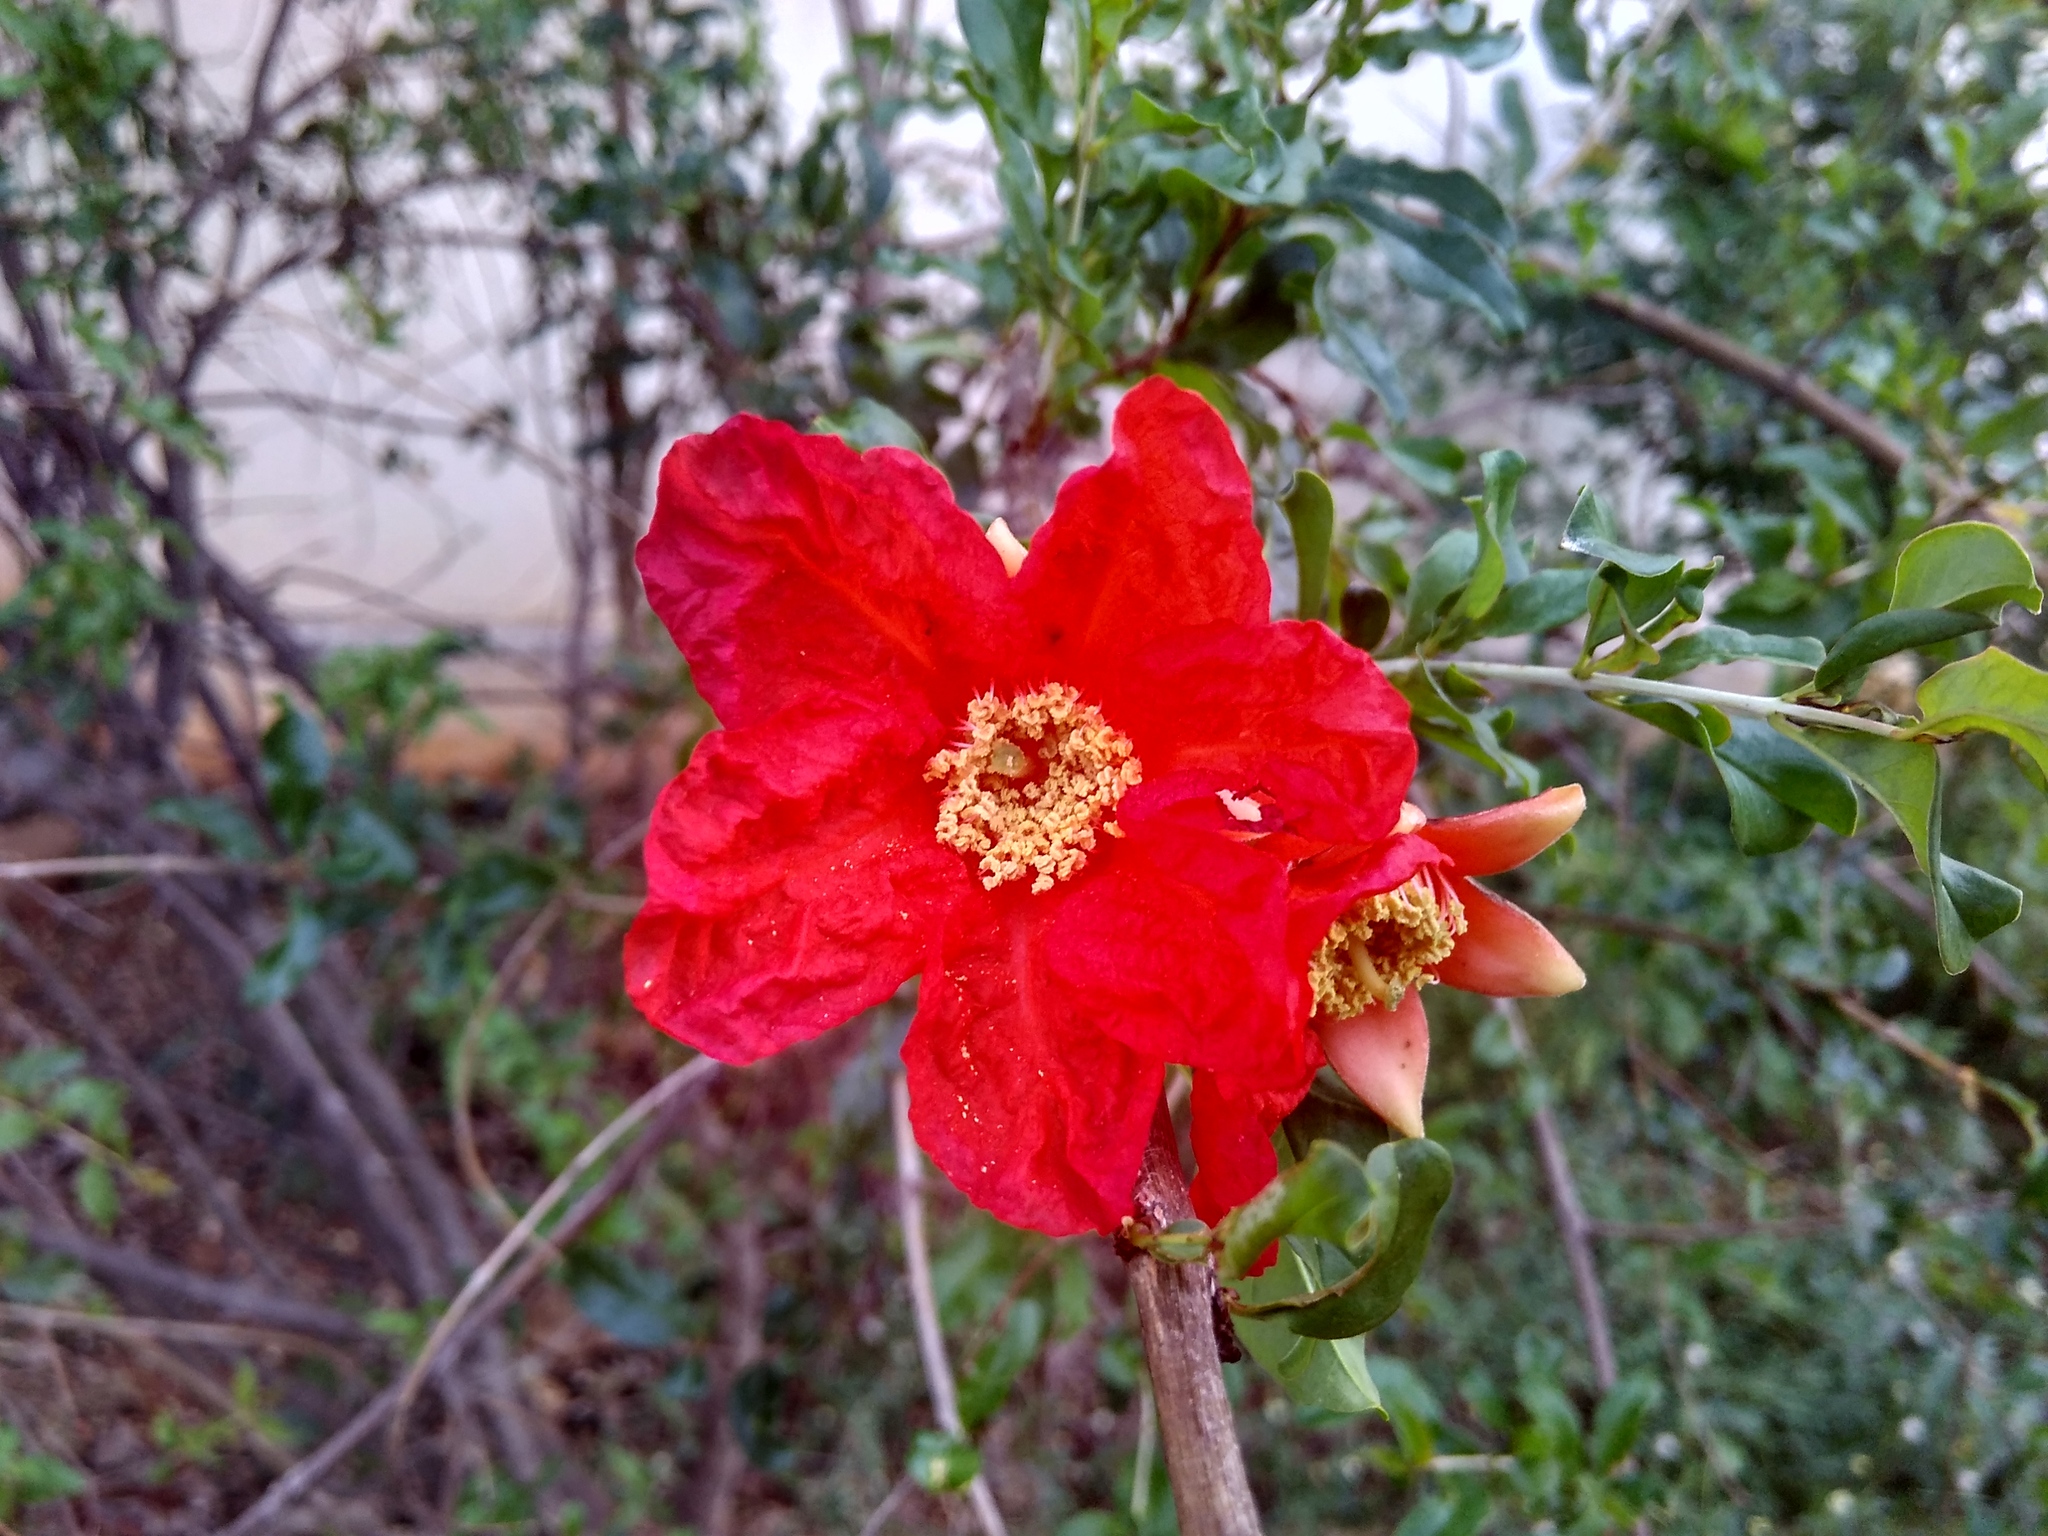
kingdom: Plantae
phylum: Tracheophyta
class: Magnoliopsida
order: Myrtales
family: Lythraceae
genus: Punica
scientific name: Punica granatum
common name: Pomegranate
